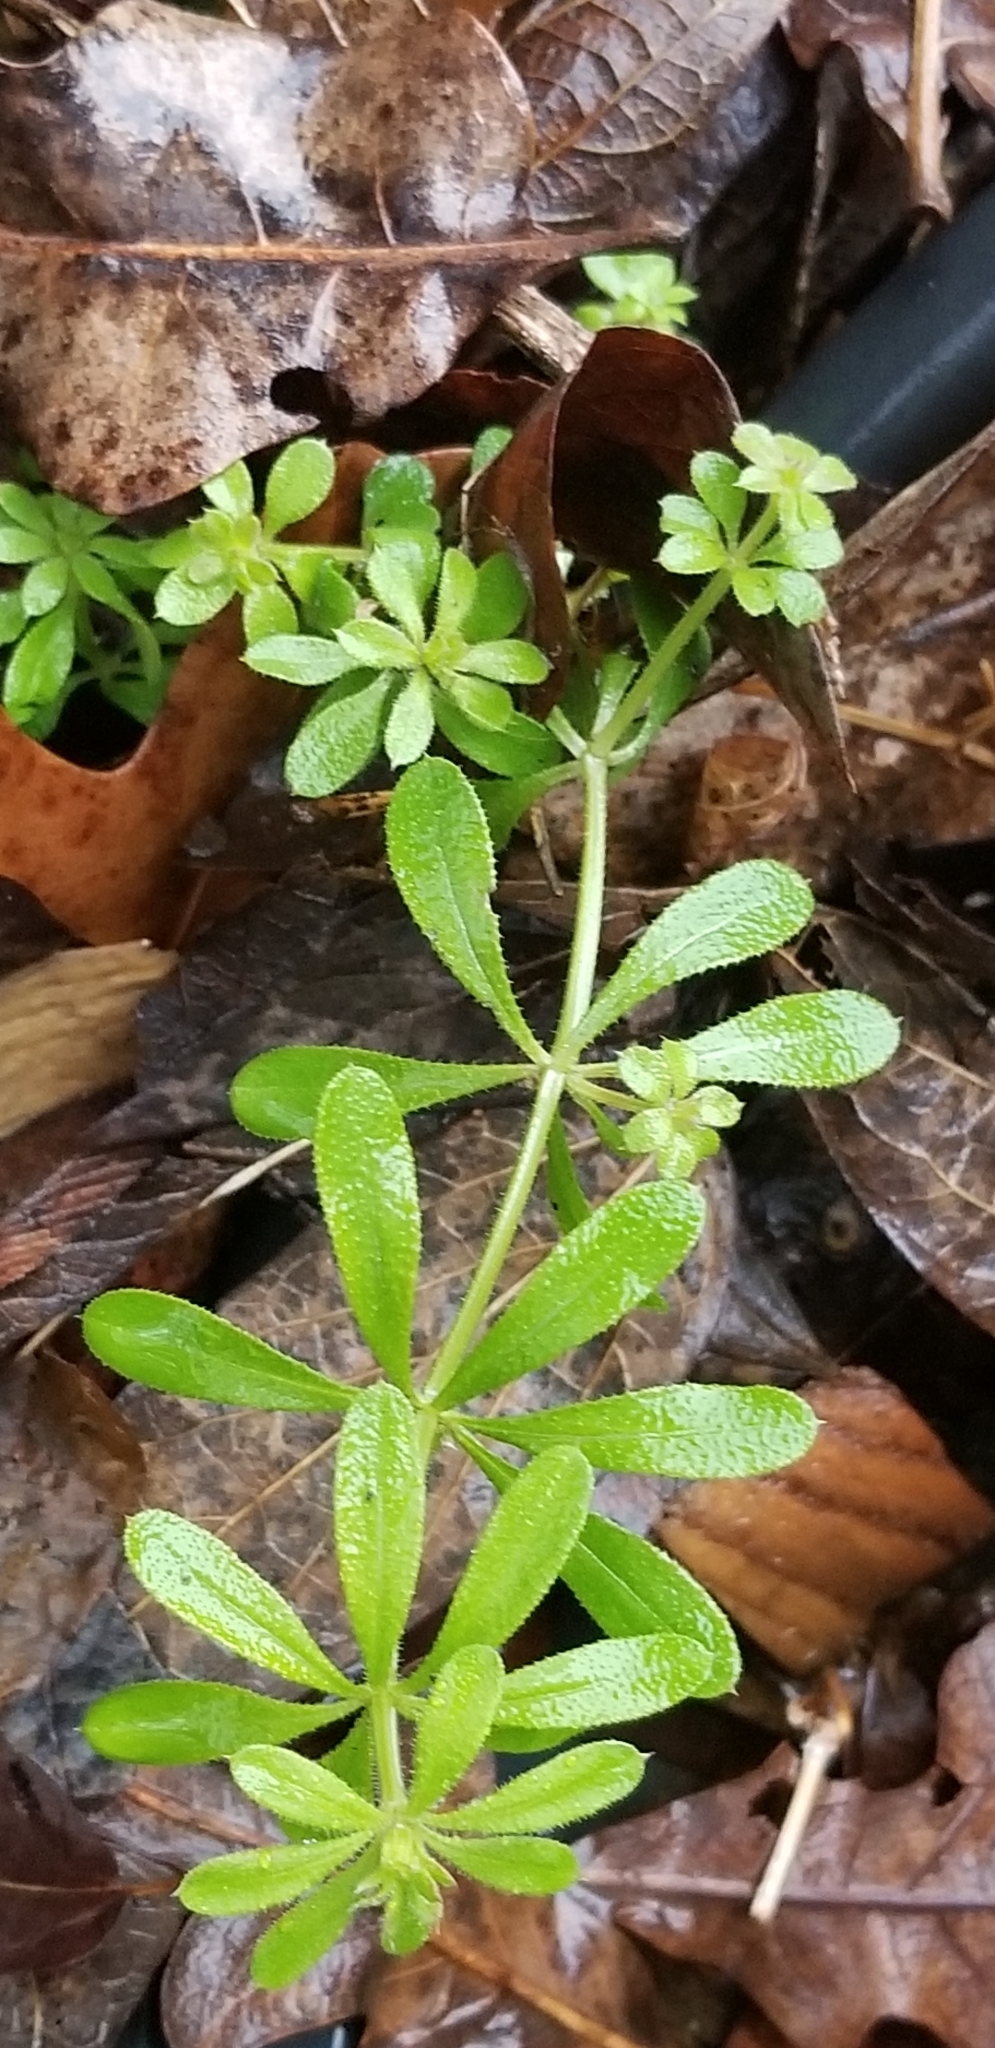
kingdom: Plantae
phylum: Tracheophyta
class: Magnoliopsida
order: Gentianales
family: Rubiaceae
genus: Galium
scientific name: Galium aparine
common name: Cleavers
